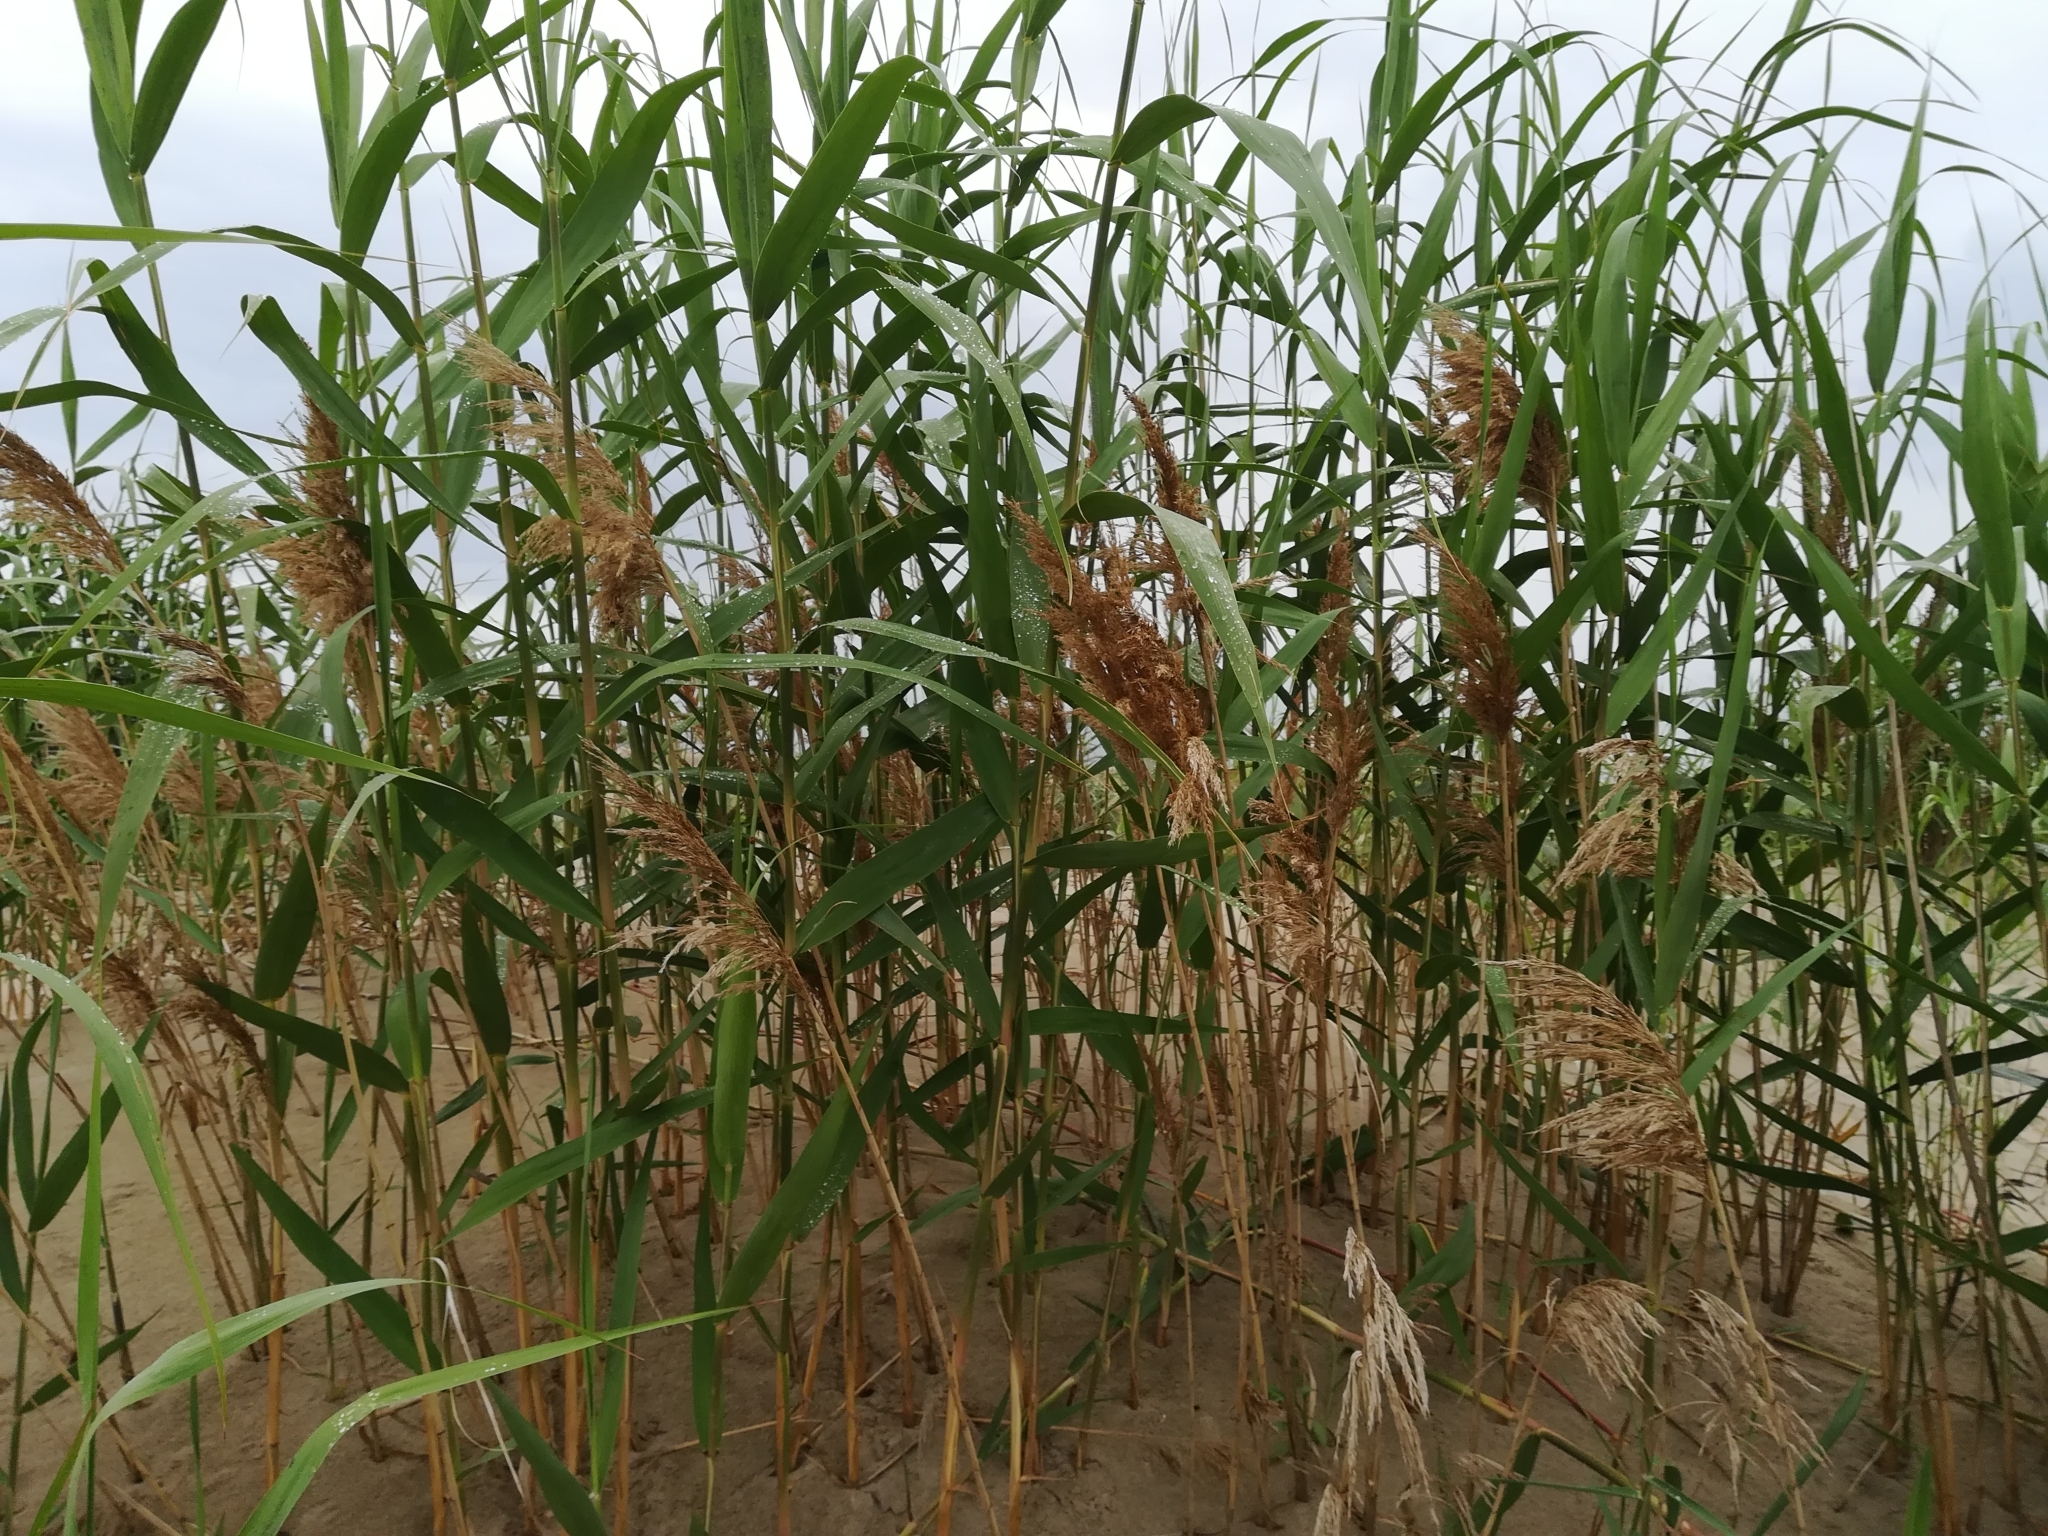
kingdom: Plantae
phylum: Tracheophyta
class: Liliopsida
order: Poales
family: Poaceae
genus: Phragmites
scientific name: Phragmites australis
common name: Common reed
